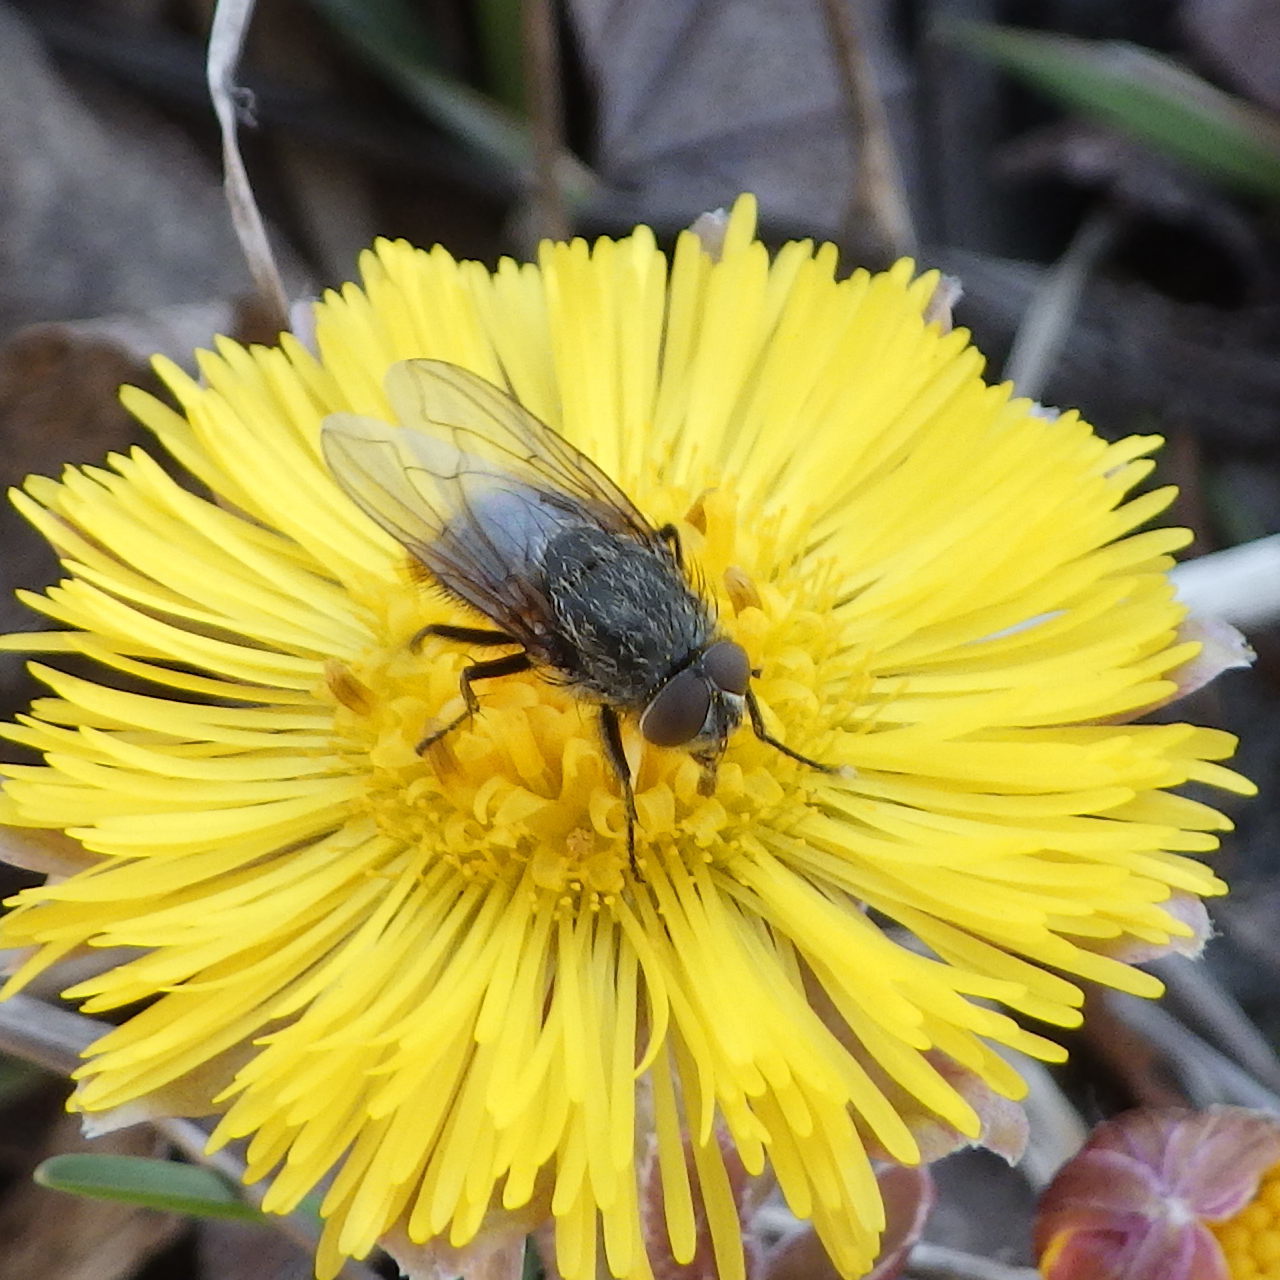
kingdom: Animalia
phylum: Arthropoda
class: Insecta
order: Diptera
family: Polleniidae
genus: Pollenia
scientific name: Pollenia
